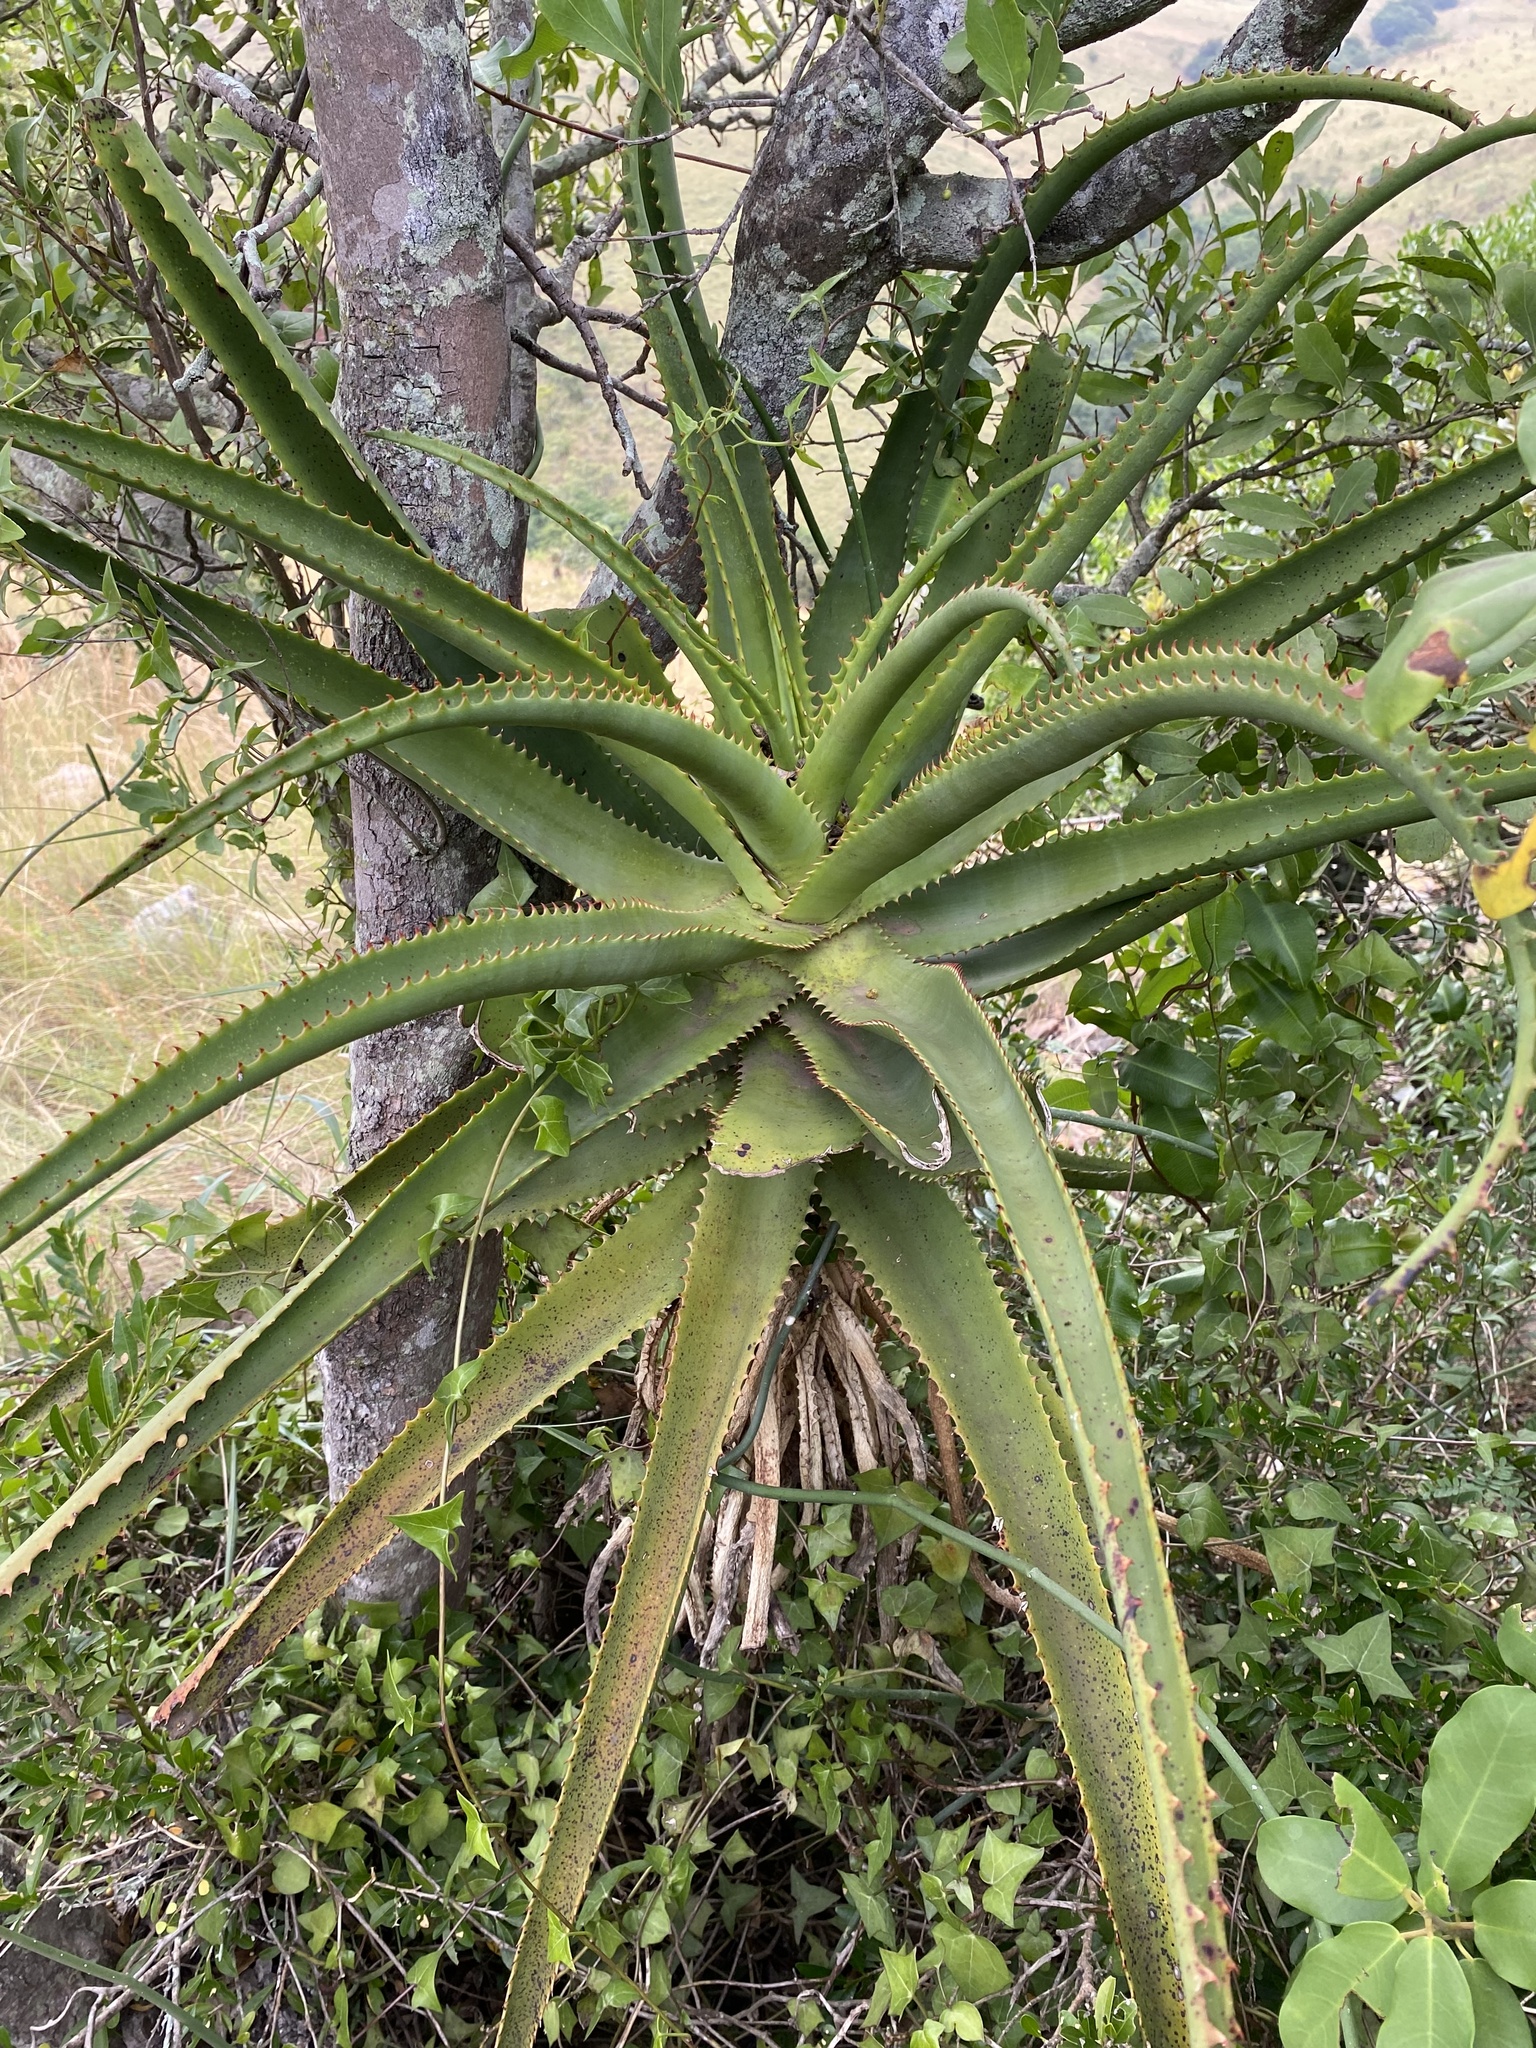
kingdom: Plantae
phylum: Tracheophyta
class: Liliopsida
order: Asparagales
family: Asphodelaceae
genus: Aloe
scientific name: Aloe rupestris
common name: Bottle-brush aloe
